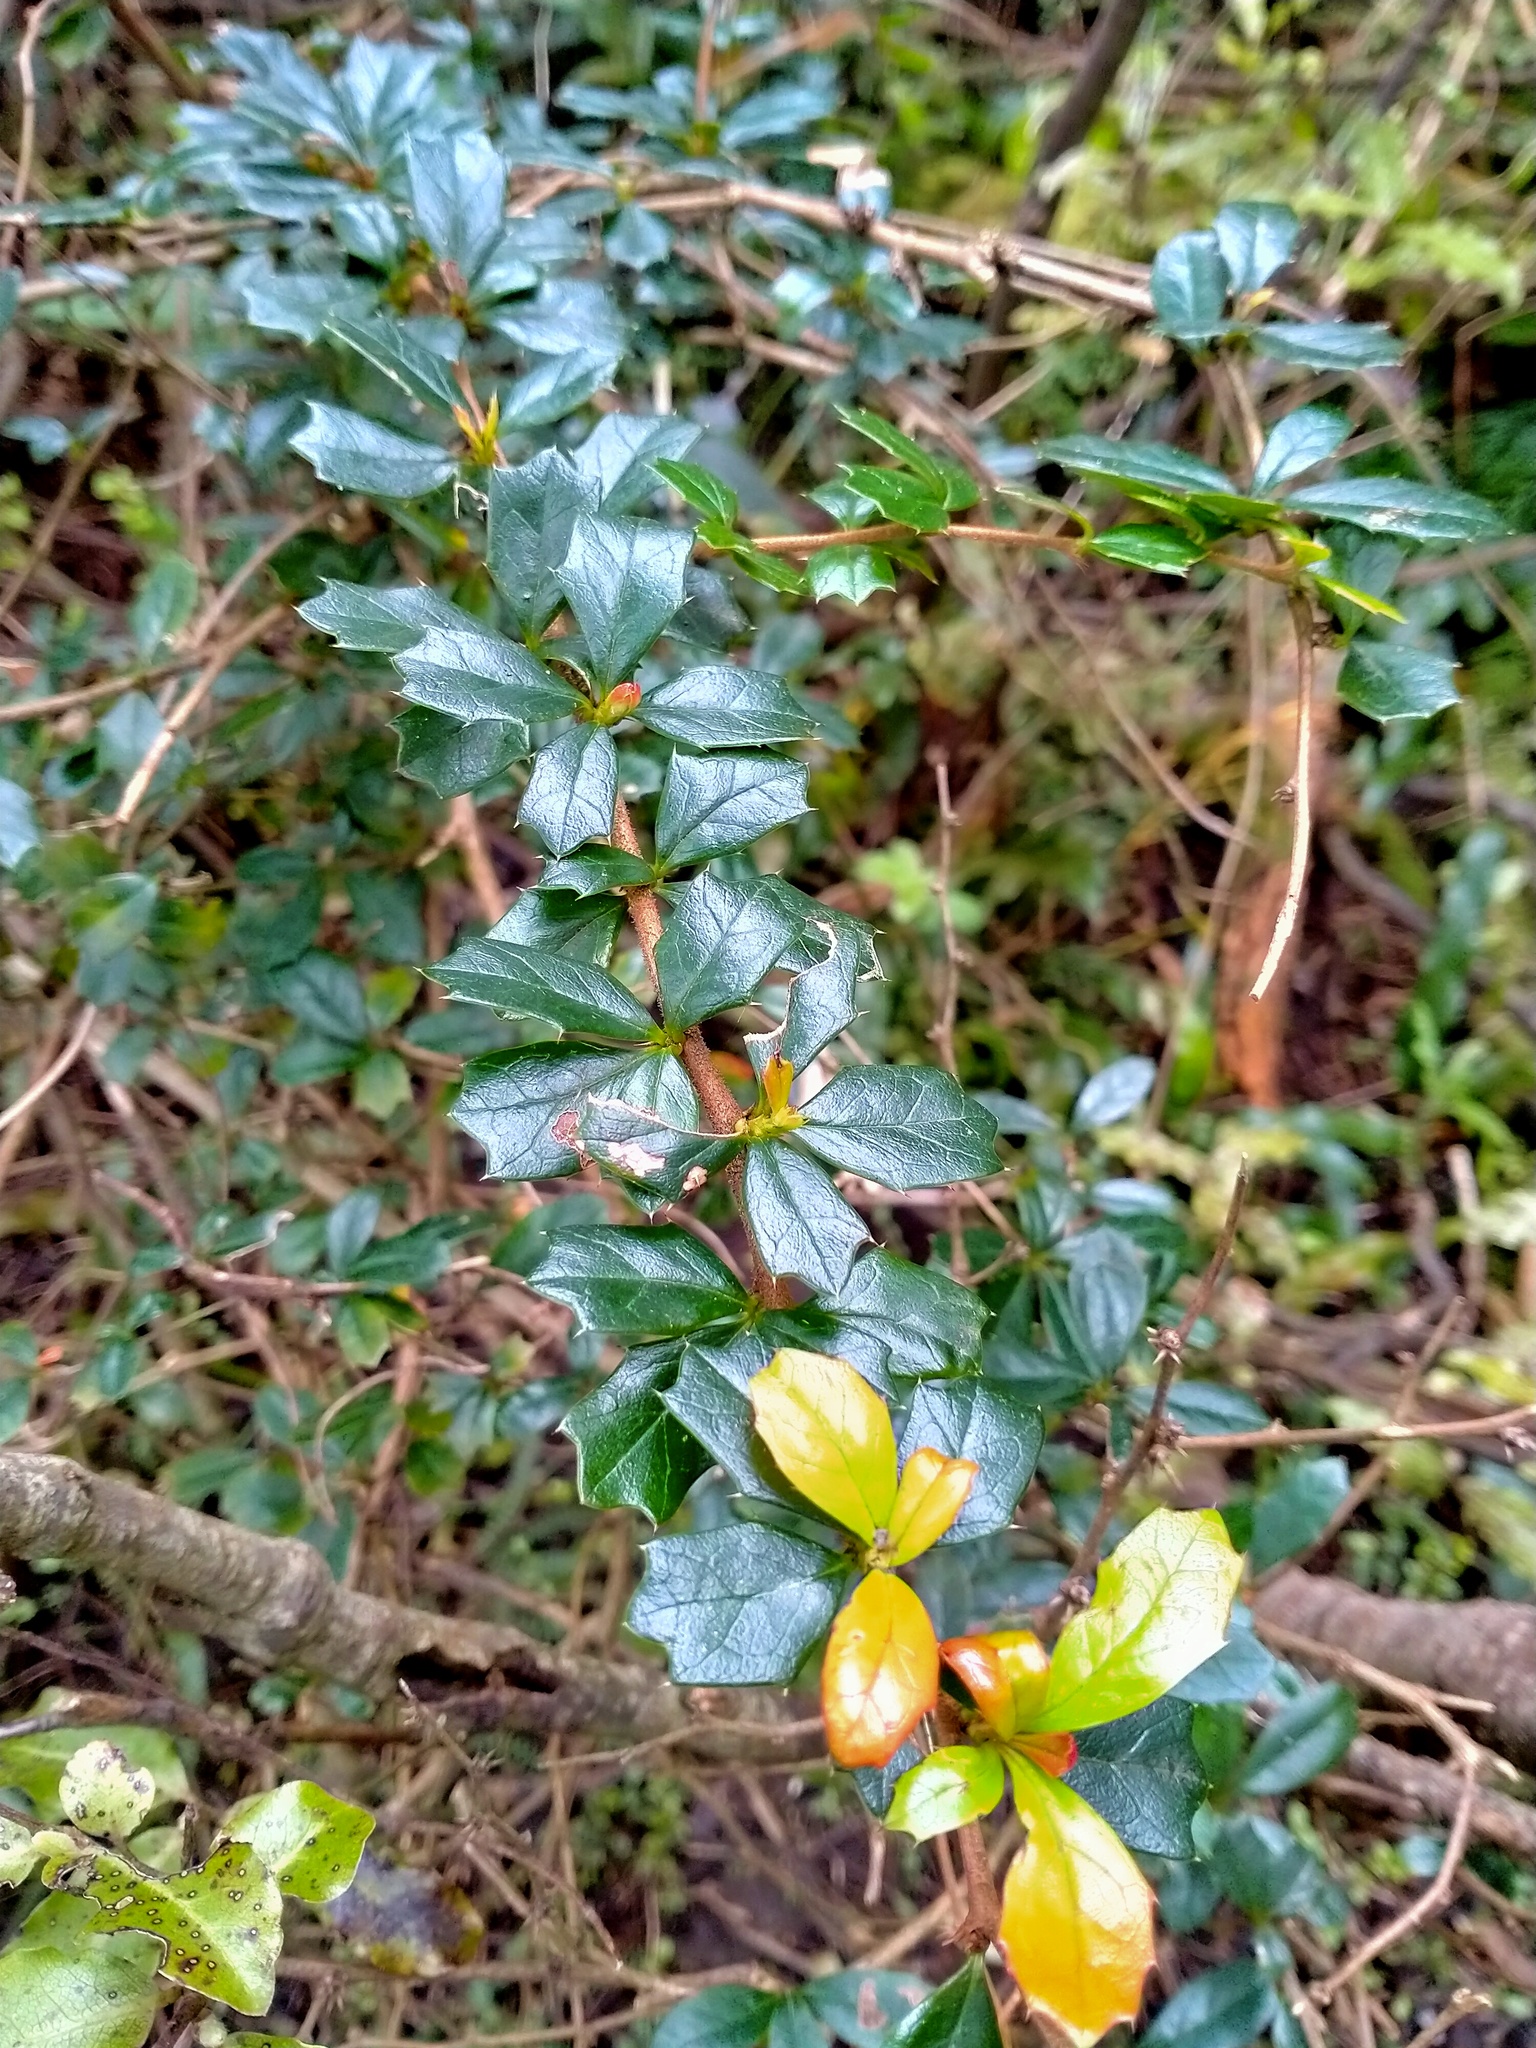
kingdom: Plantae
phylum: Tracheophyta
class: Magnoliopsida
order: Ranunculales
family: Berberidaceae
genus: Berberis
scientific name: Berberis darwinii
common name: Darwin's barberry
